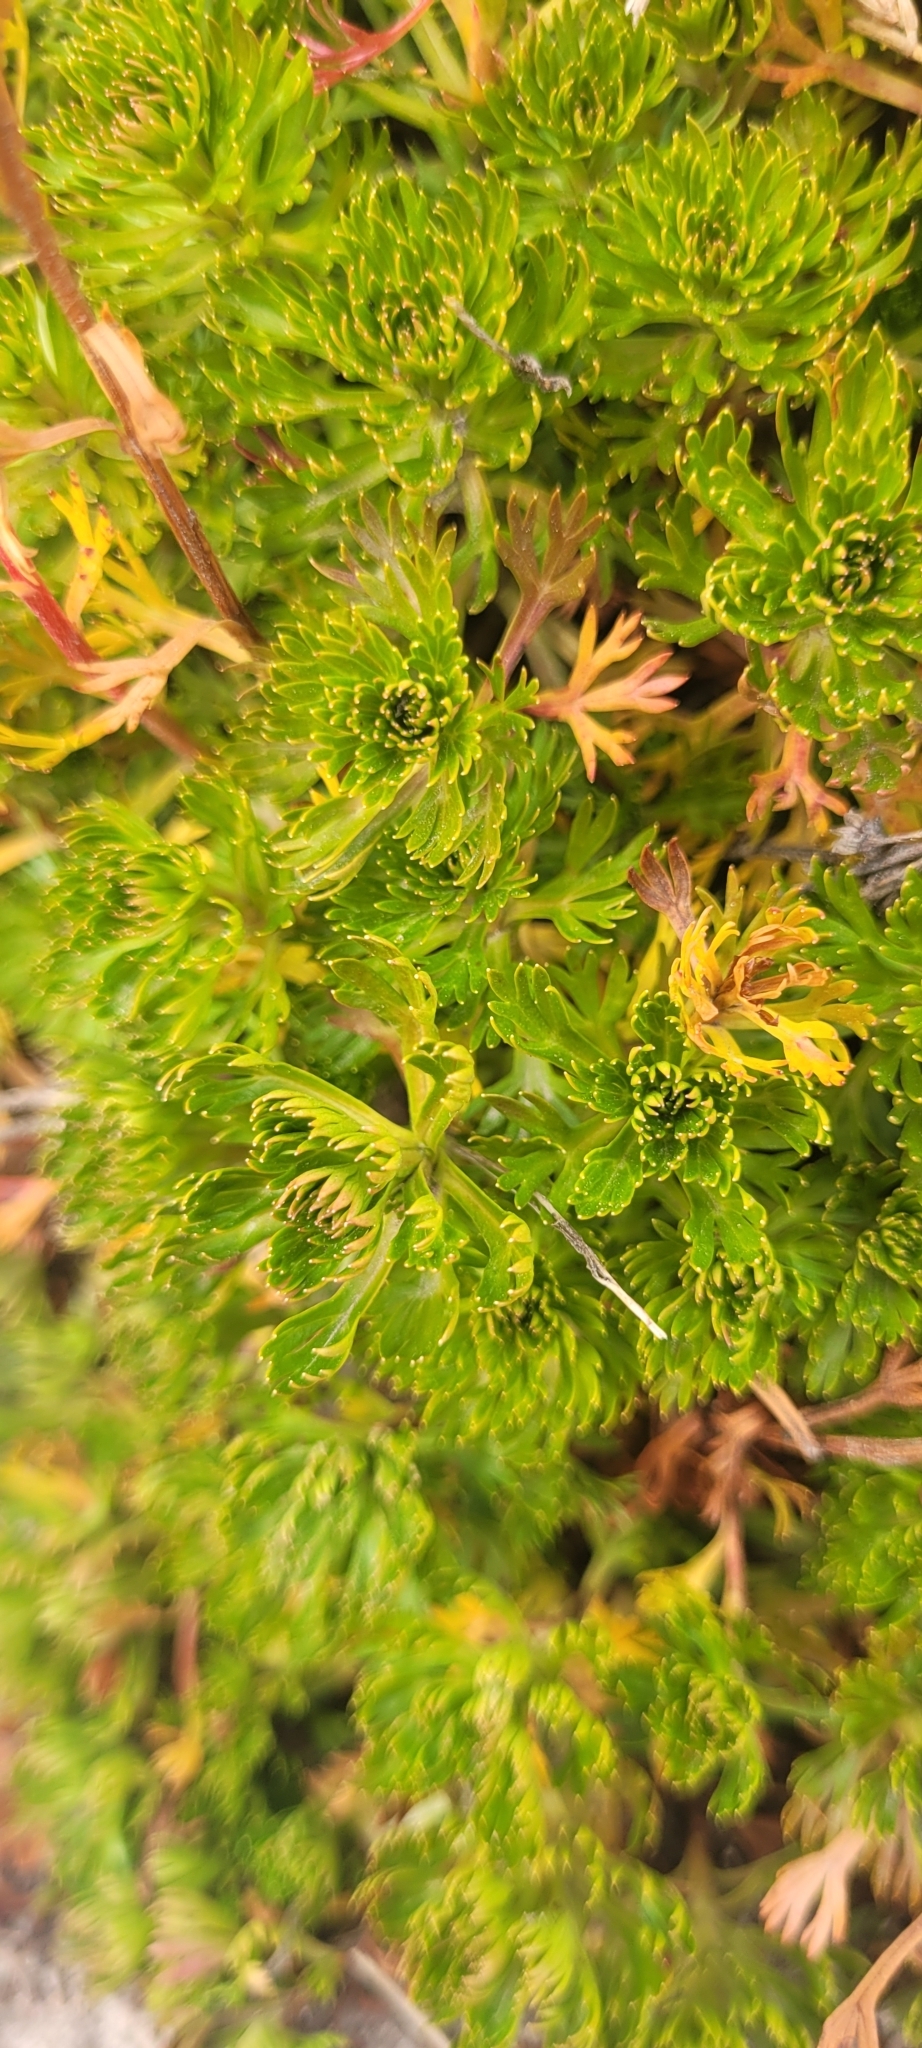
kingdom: Plantae
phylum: Tracheophyta
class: Magnoliopsida
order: Rosales
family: Rosaceae
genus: Luetkea
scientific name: Luetkea pectinata
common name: Partridgefoot
